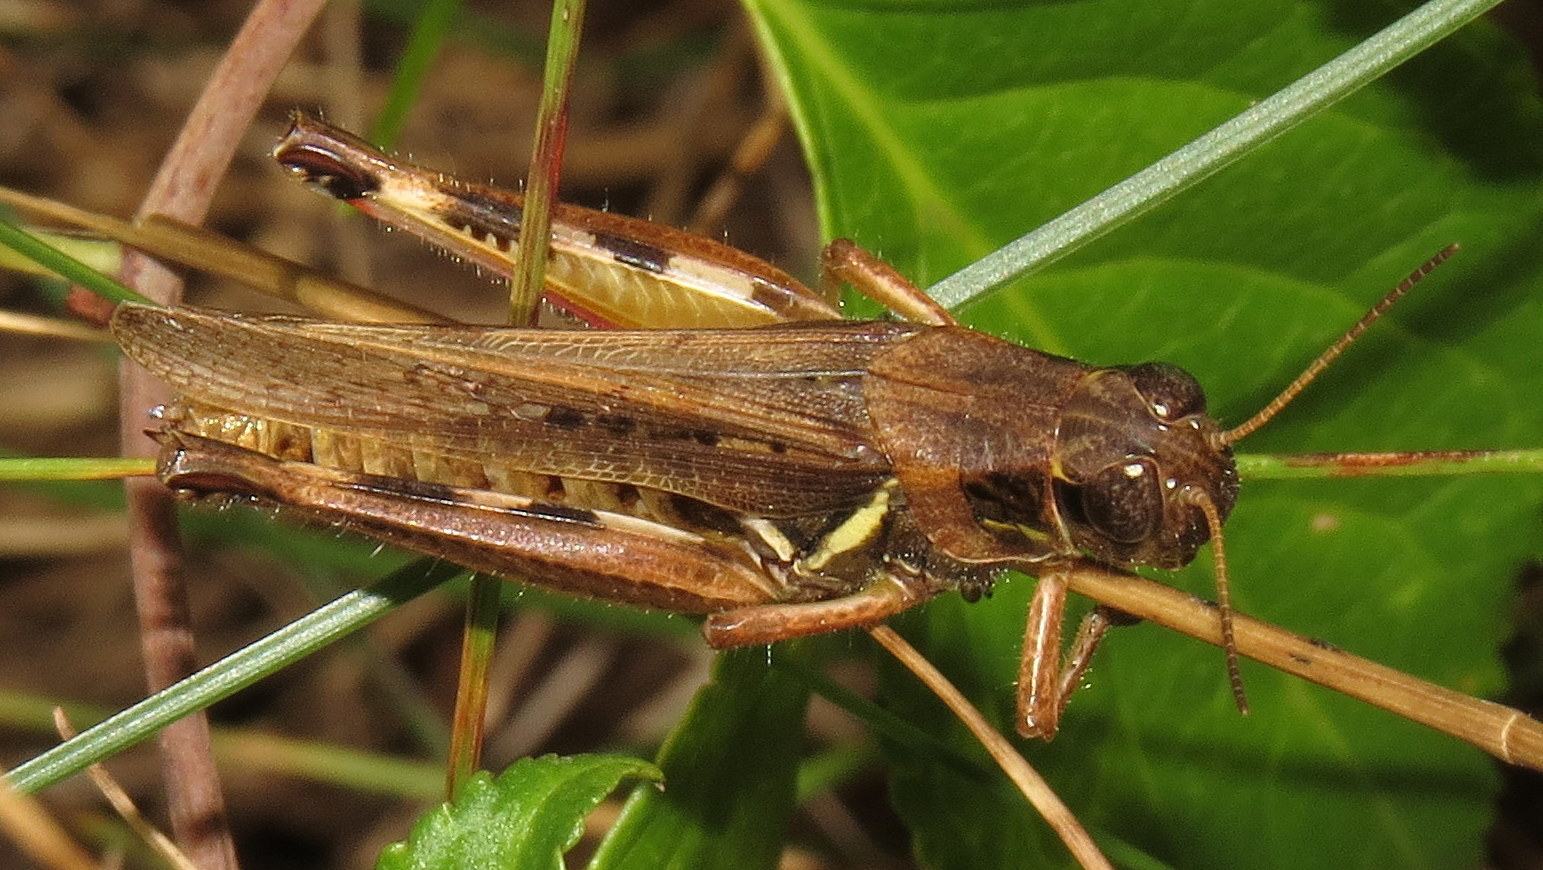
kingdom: Animalia
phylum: Arthropoda
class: Insecta
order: Orthoptera
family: Acrididae
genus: Melanoplus
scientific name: Melanoplus femurrubrum
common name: Red-legged grasshopper
